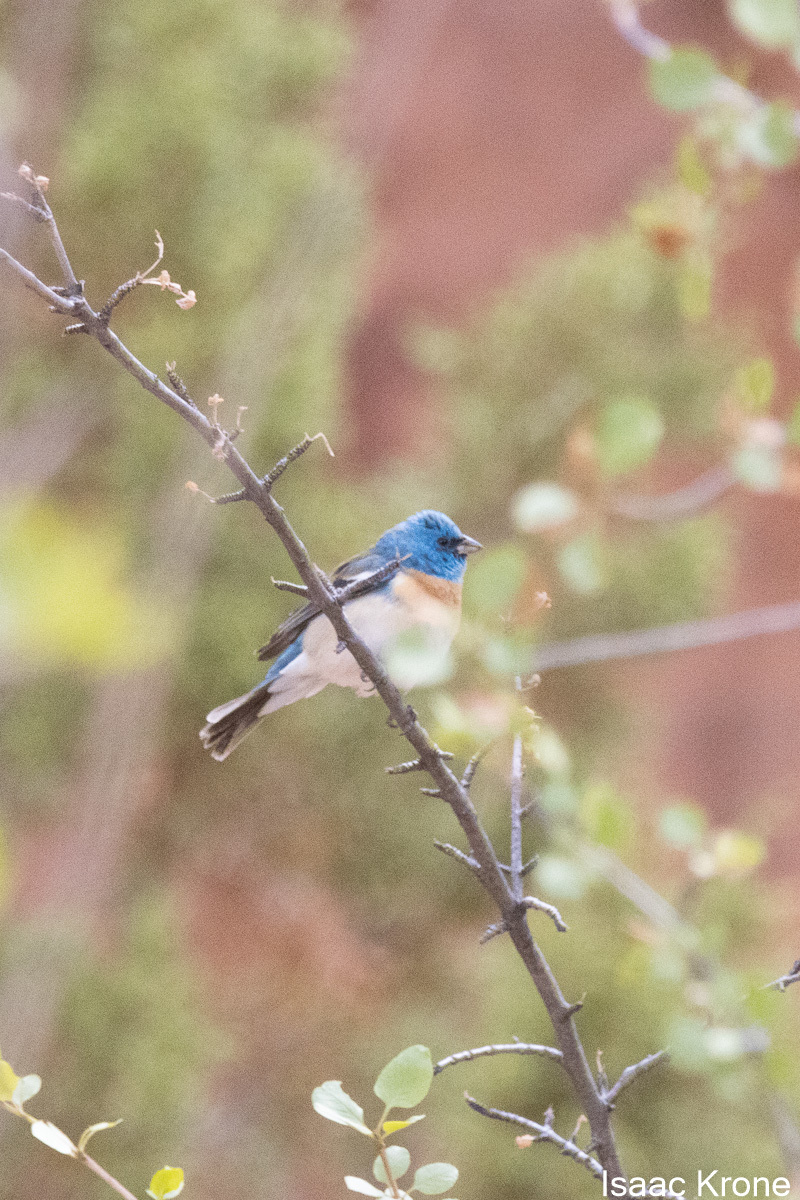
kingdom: Animalia
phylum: Chordata
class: Aves
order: Passeriformes
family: Cardinalidae
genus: Passerina
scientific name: Passerina amoena
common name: Lazuli bunting
